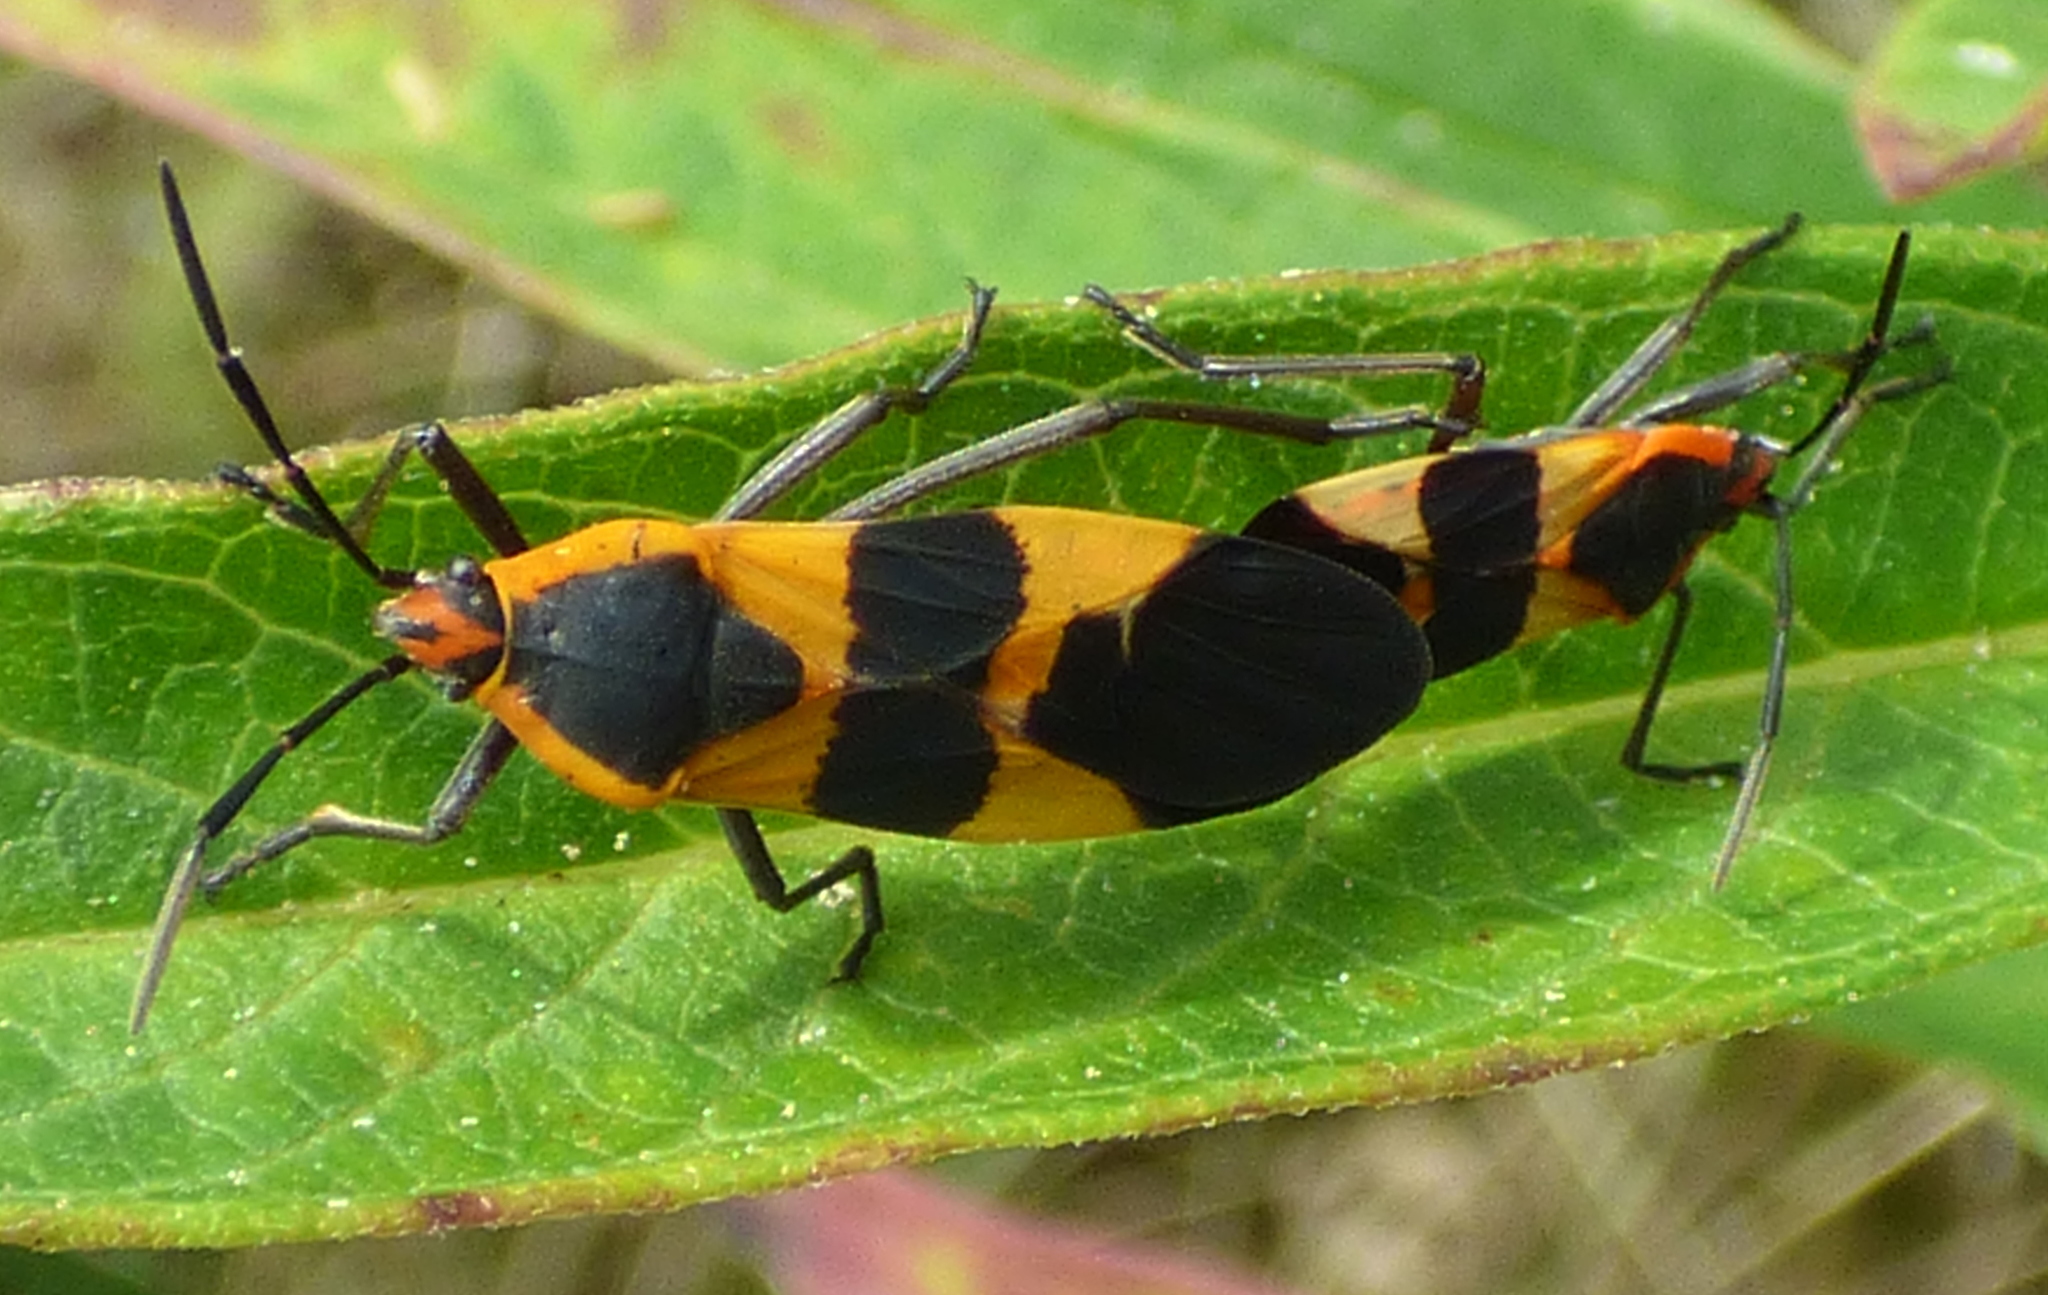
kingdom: Animalia
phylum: Arthropoda
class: Insecta
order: Hemiptera
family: Lygaeidae
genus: Oncopeltus
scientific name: Oncopeltus fasciatus
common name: Large milkweed bug
